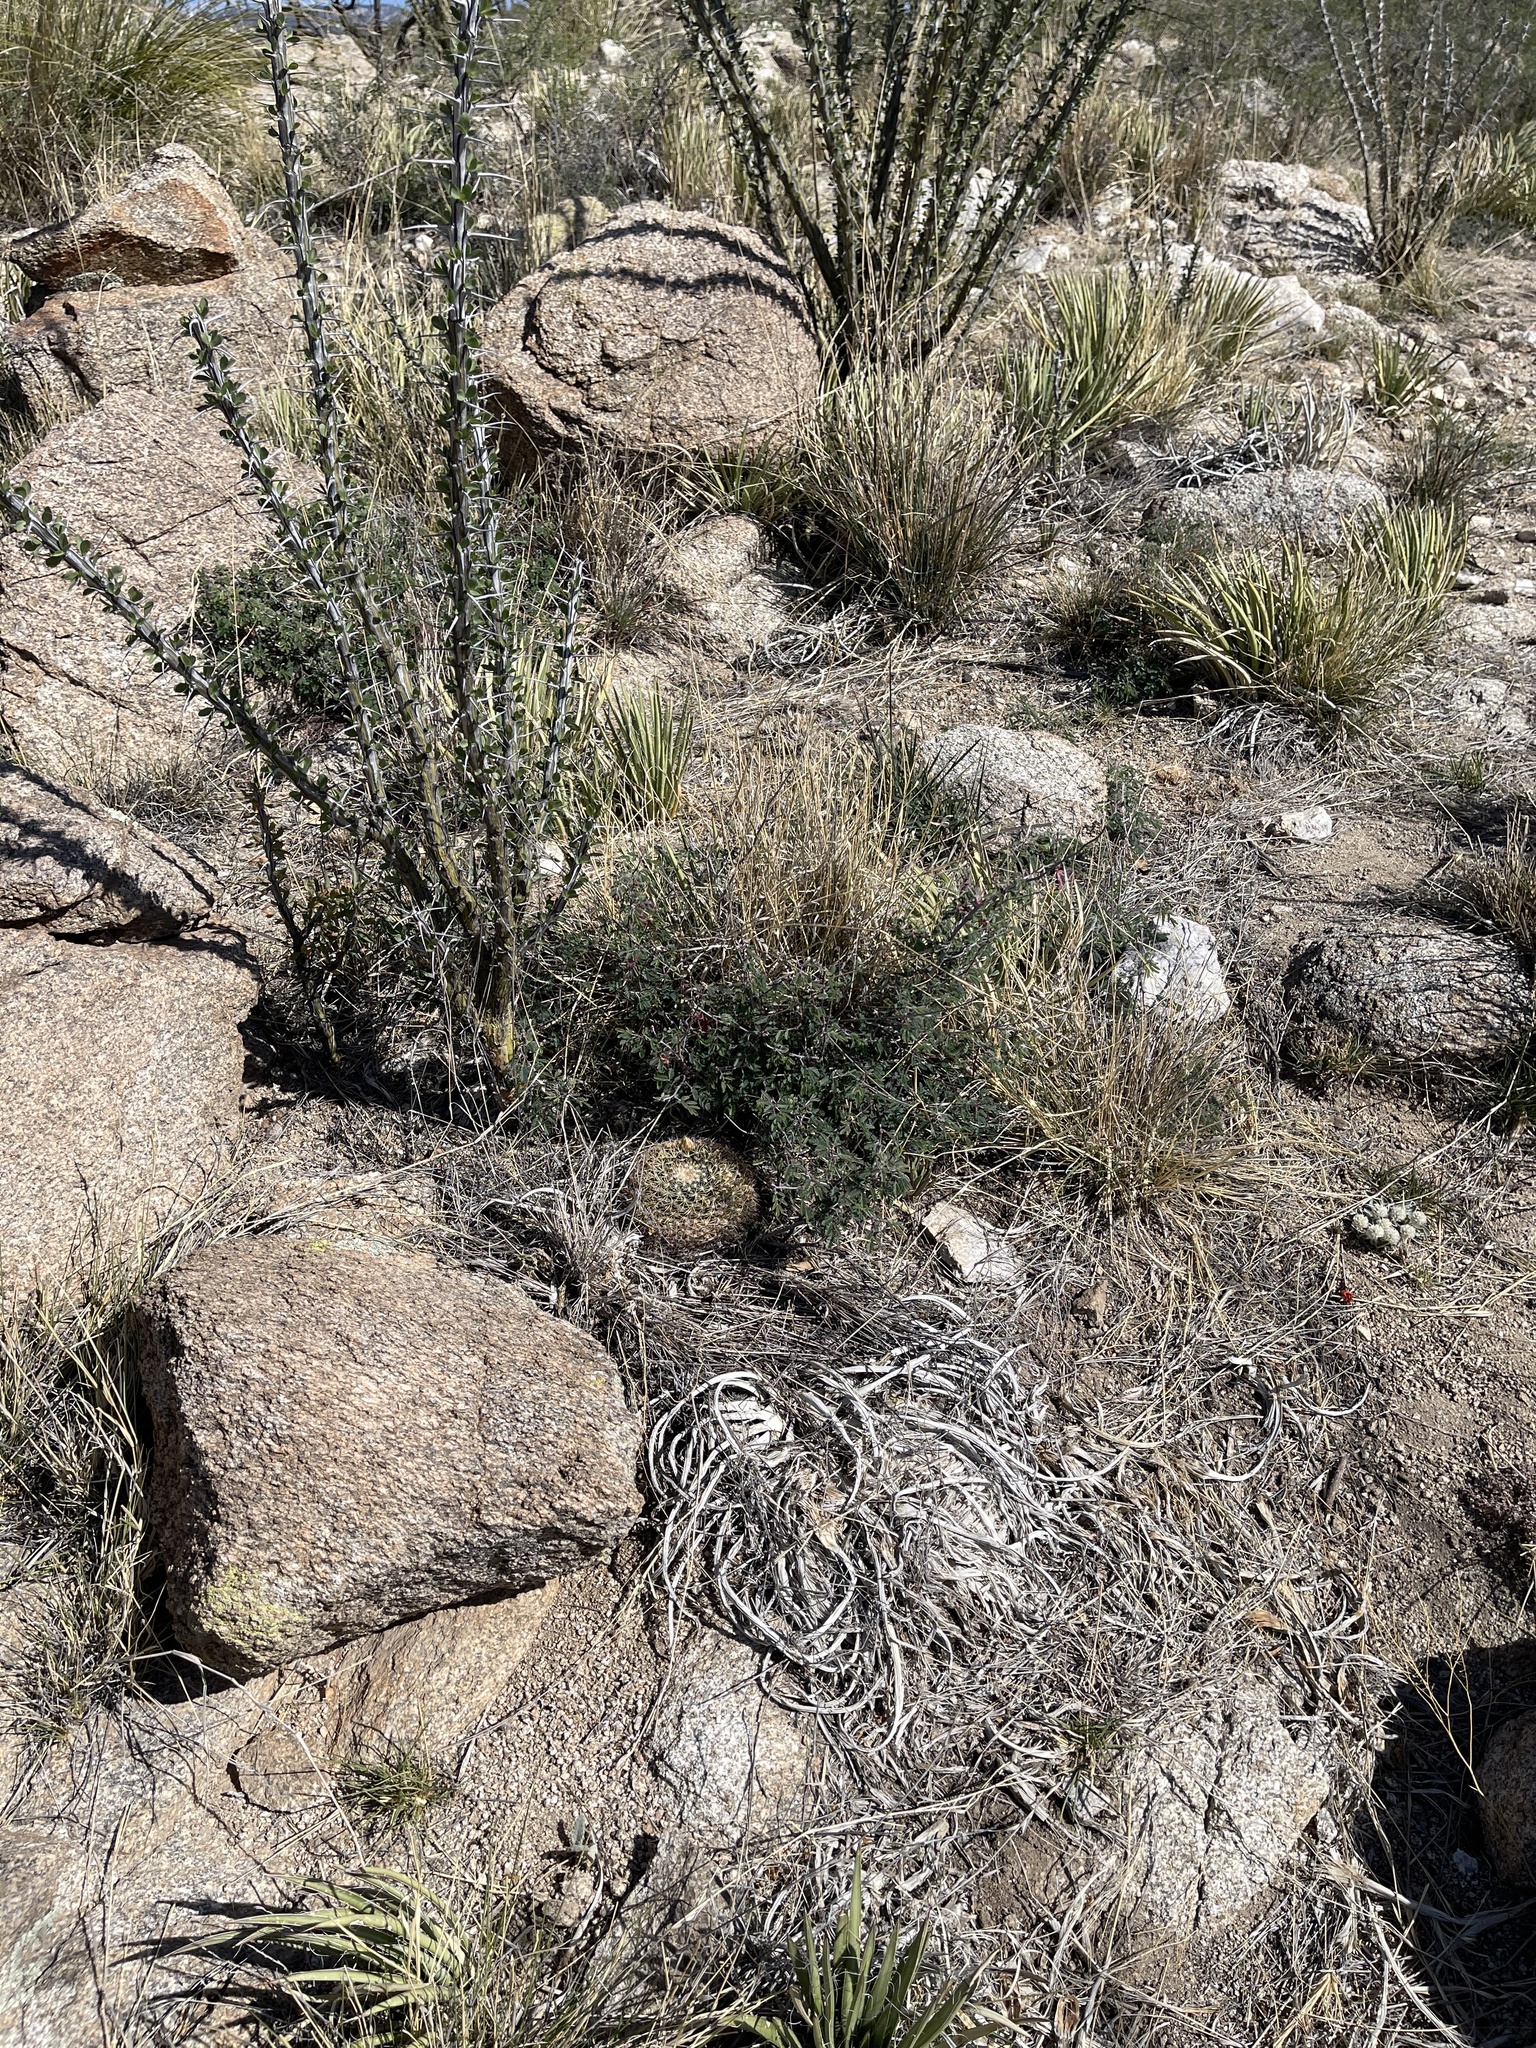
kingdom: Plantae
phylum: Tracheophyta
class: Magnoliopsida
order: Fabales
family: Fabaceae
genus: Calliandra
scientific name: Calliandra eriophylla
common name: Fairy-duster
